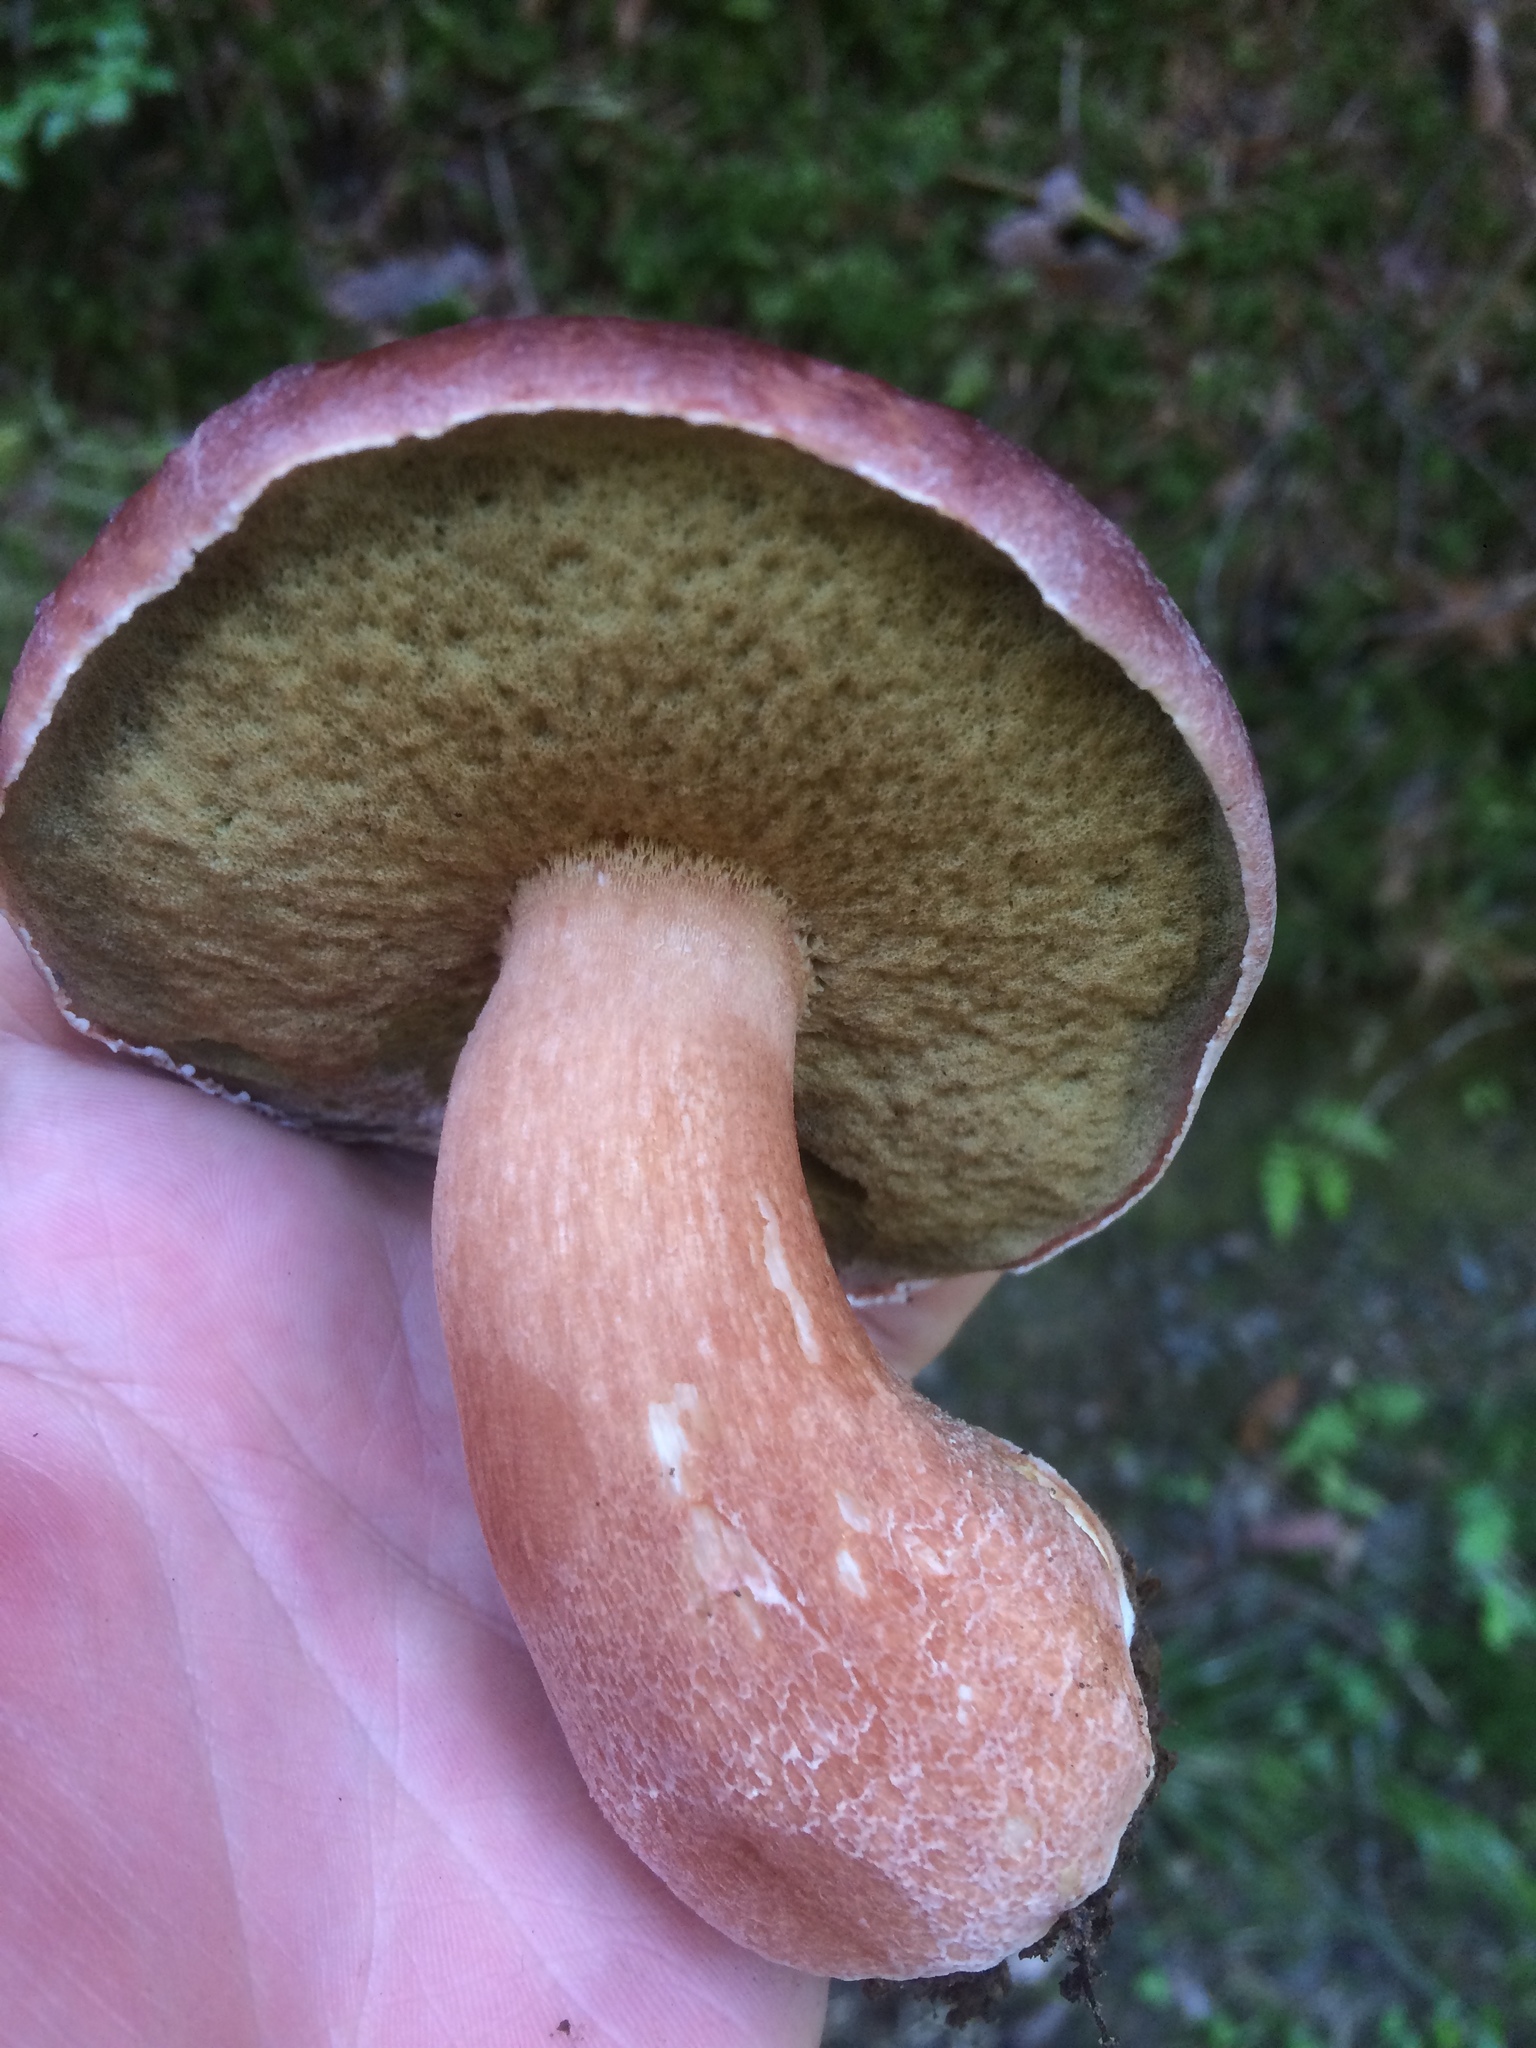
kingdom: Fungi
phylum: Basidiomycota
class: Agaricomycetes
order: Boletales
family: Boletaceae
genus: Boletus
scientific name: Boletus pinophilus
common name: Pine bolete
